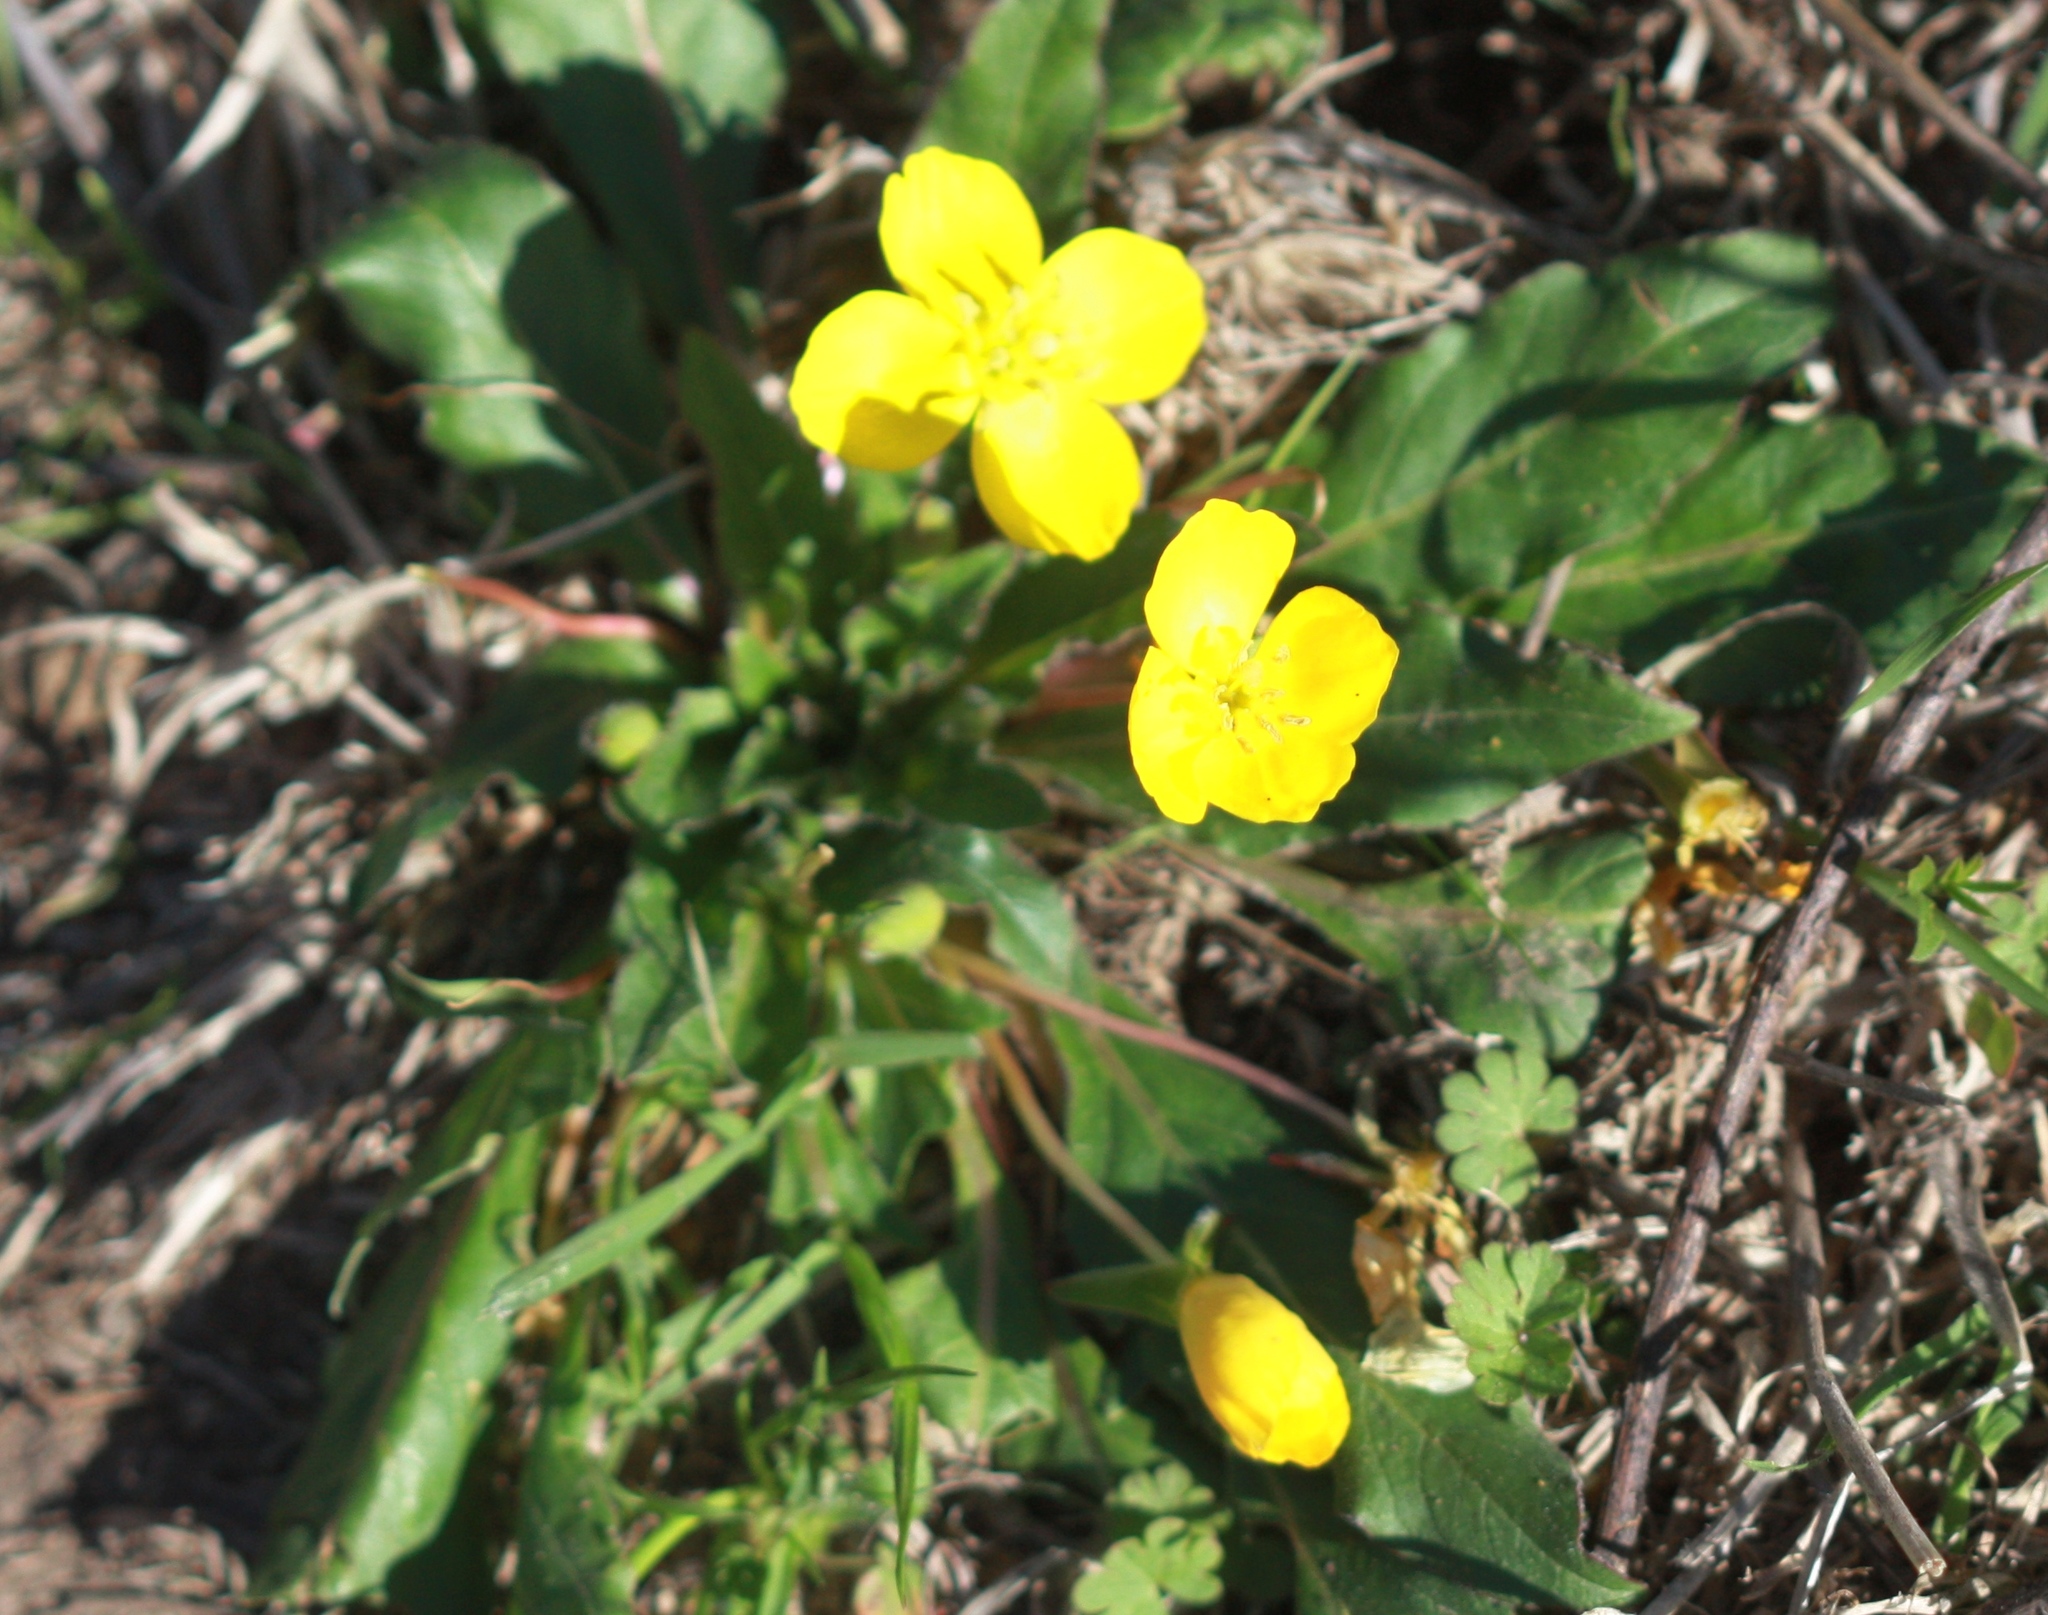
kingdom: Plantae
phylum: Tracheophyta
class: Magnoliopsida
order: Myrtales
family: Onagraceae
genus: Taraxia
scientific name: Taraxia ovata
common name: Goldeneggs
